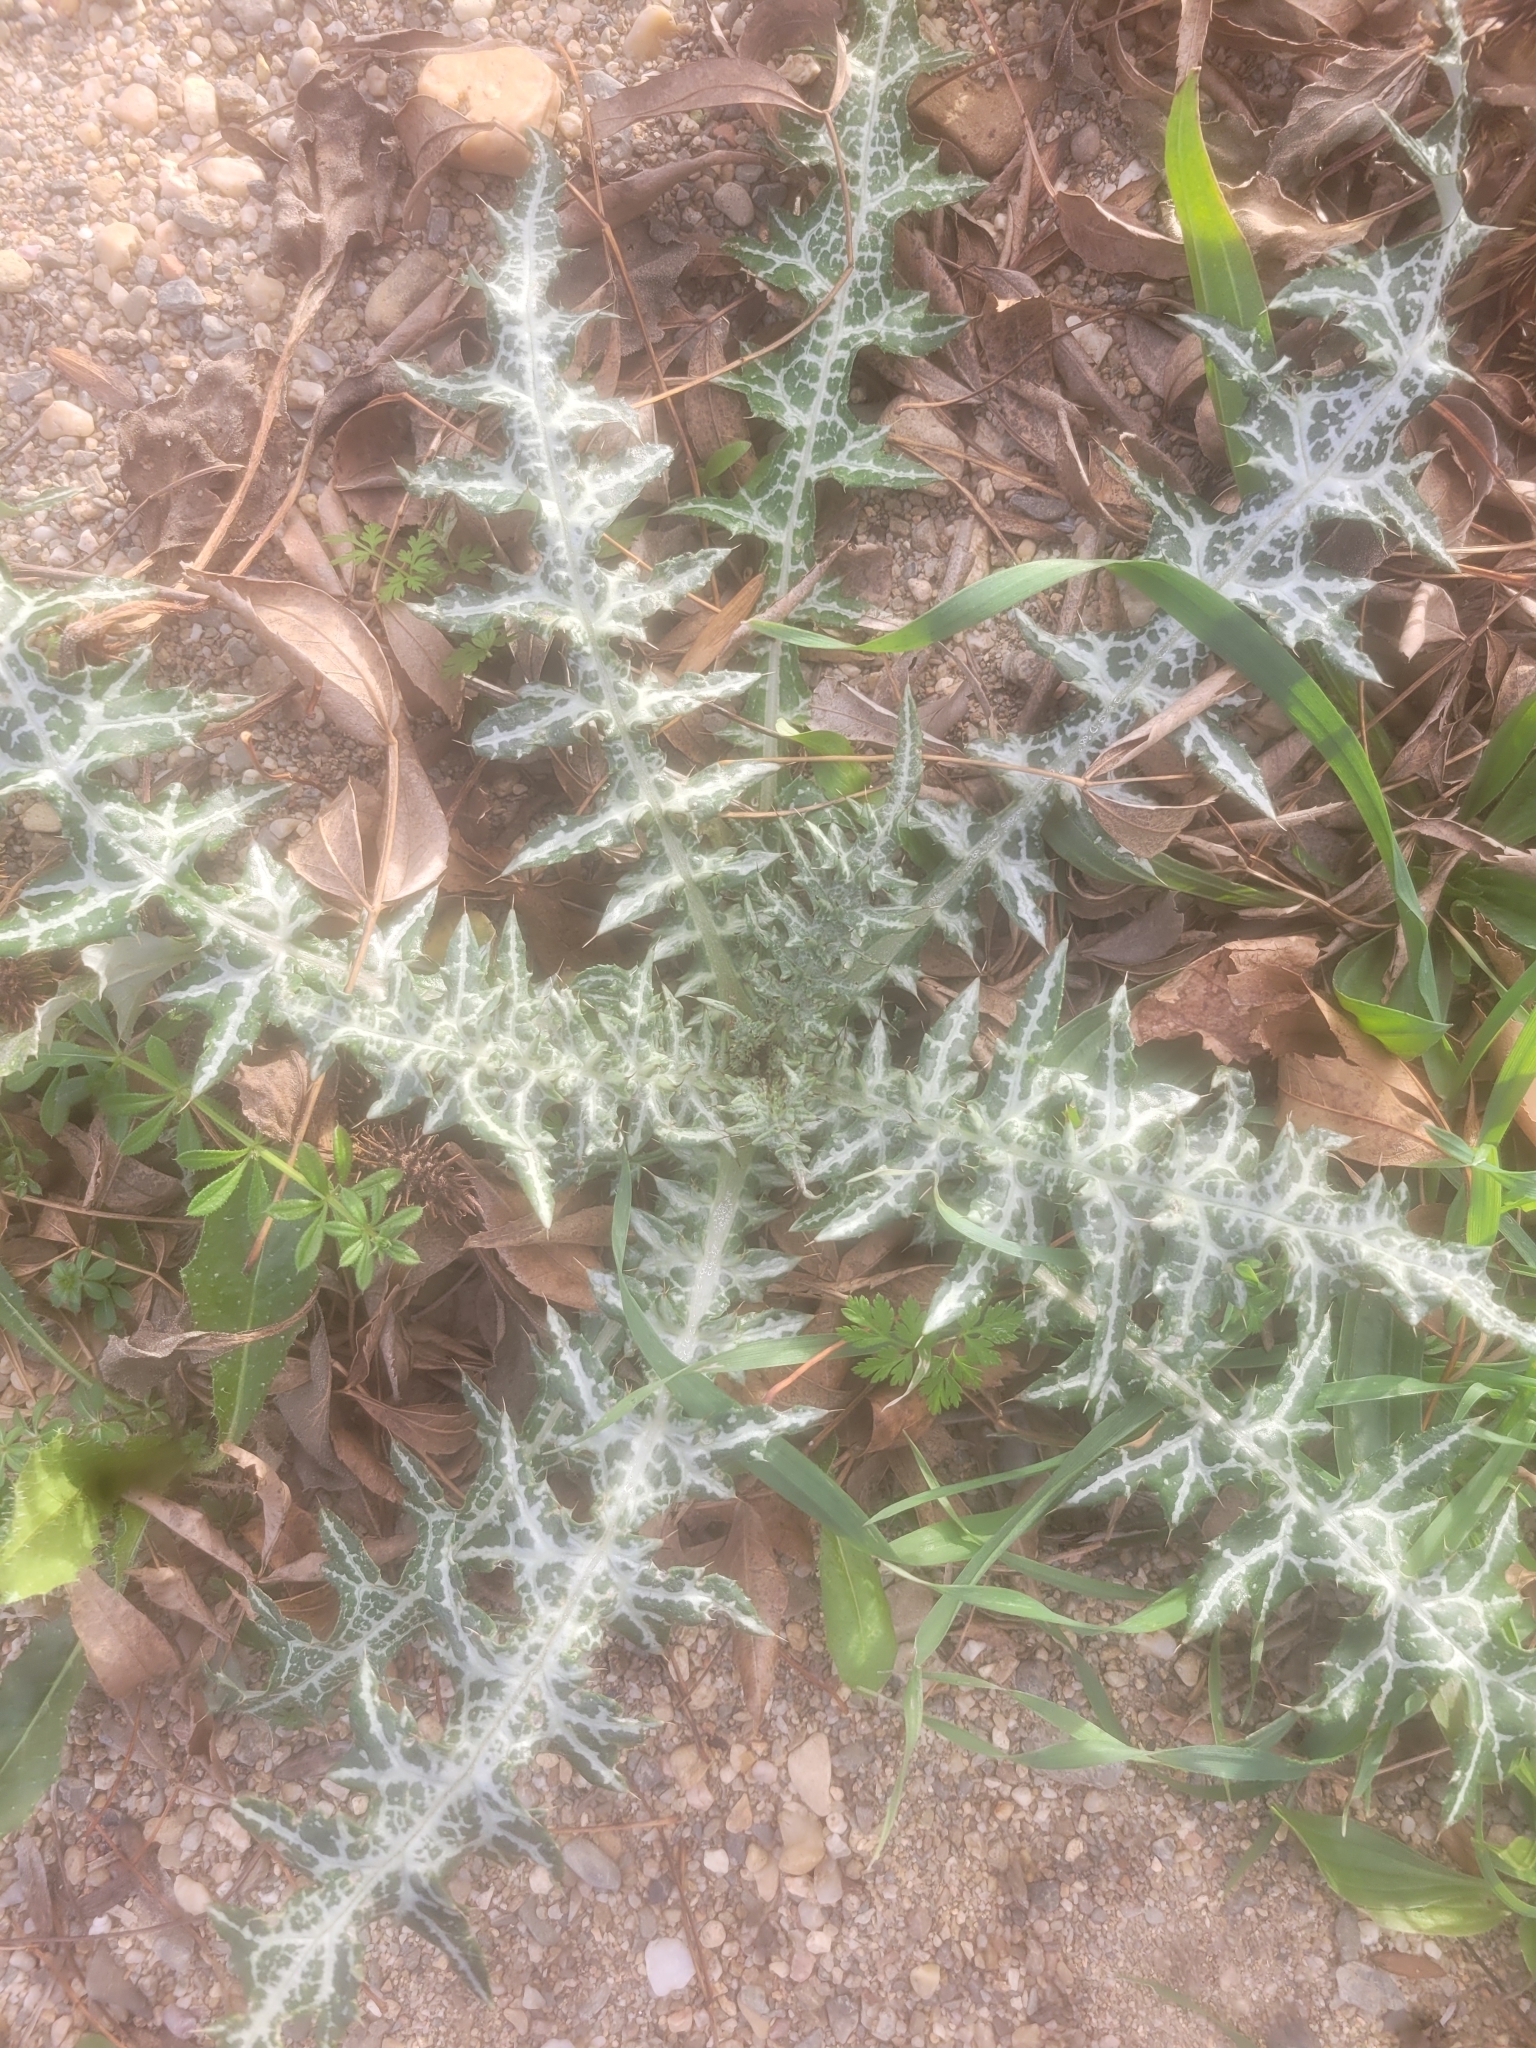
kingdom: Plantae
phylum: Tracheophyta
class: Magnoliopsida
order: Asterales
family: Asteraceae
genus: Galactites
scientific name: Galactites tomentosa
